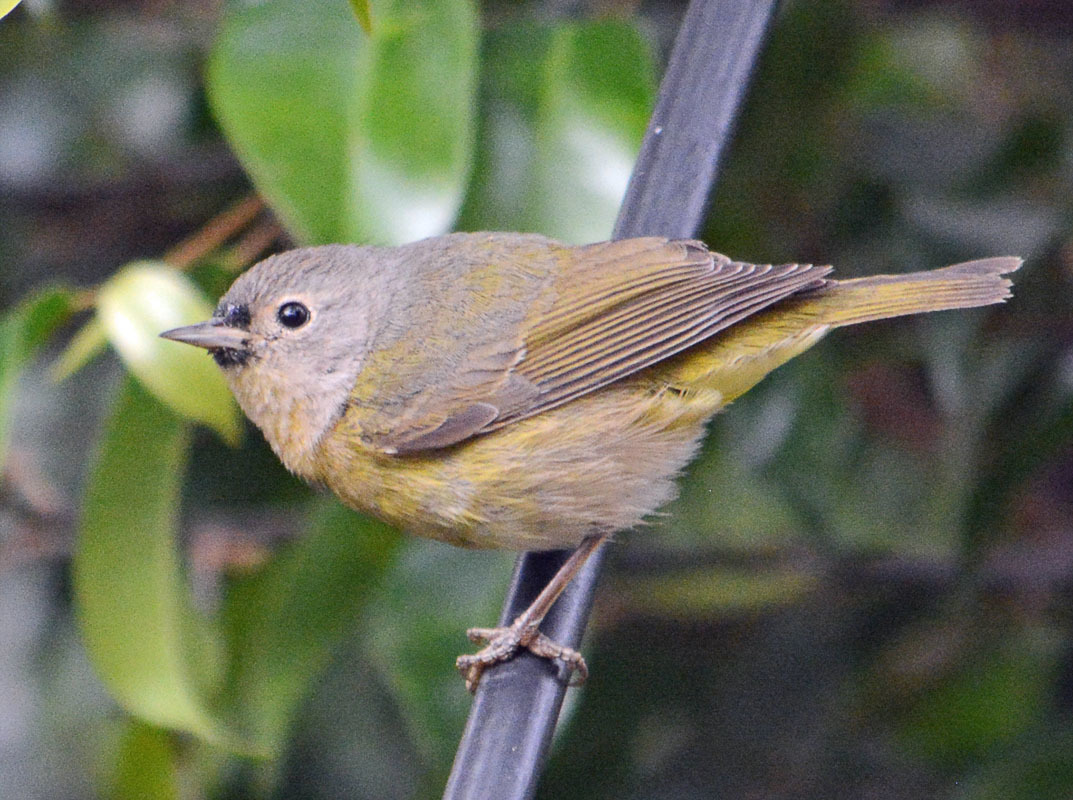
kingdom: Animalia
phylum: Chordata
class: Aves
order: Passeriformes
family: Parulidae
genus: Leiothlypis
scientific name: Leiothlypis ruficapilla
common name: Nashville warbler
